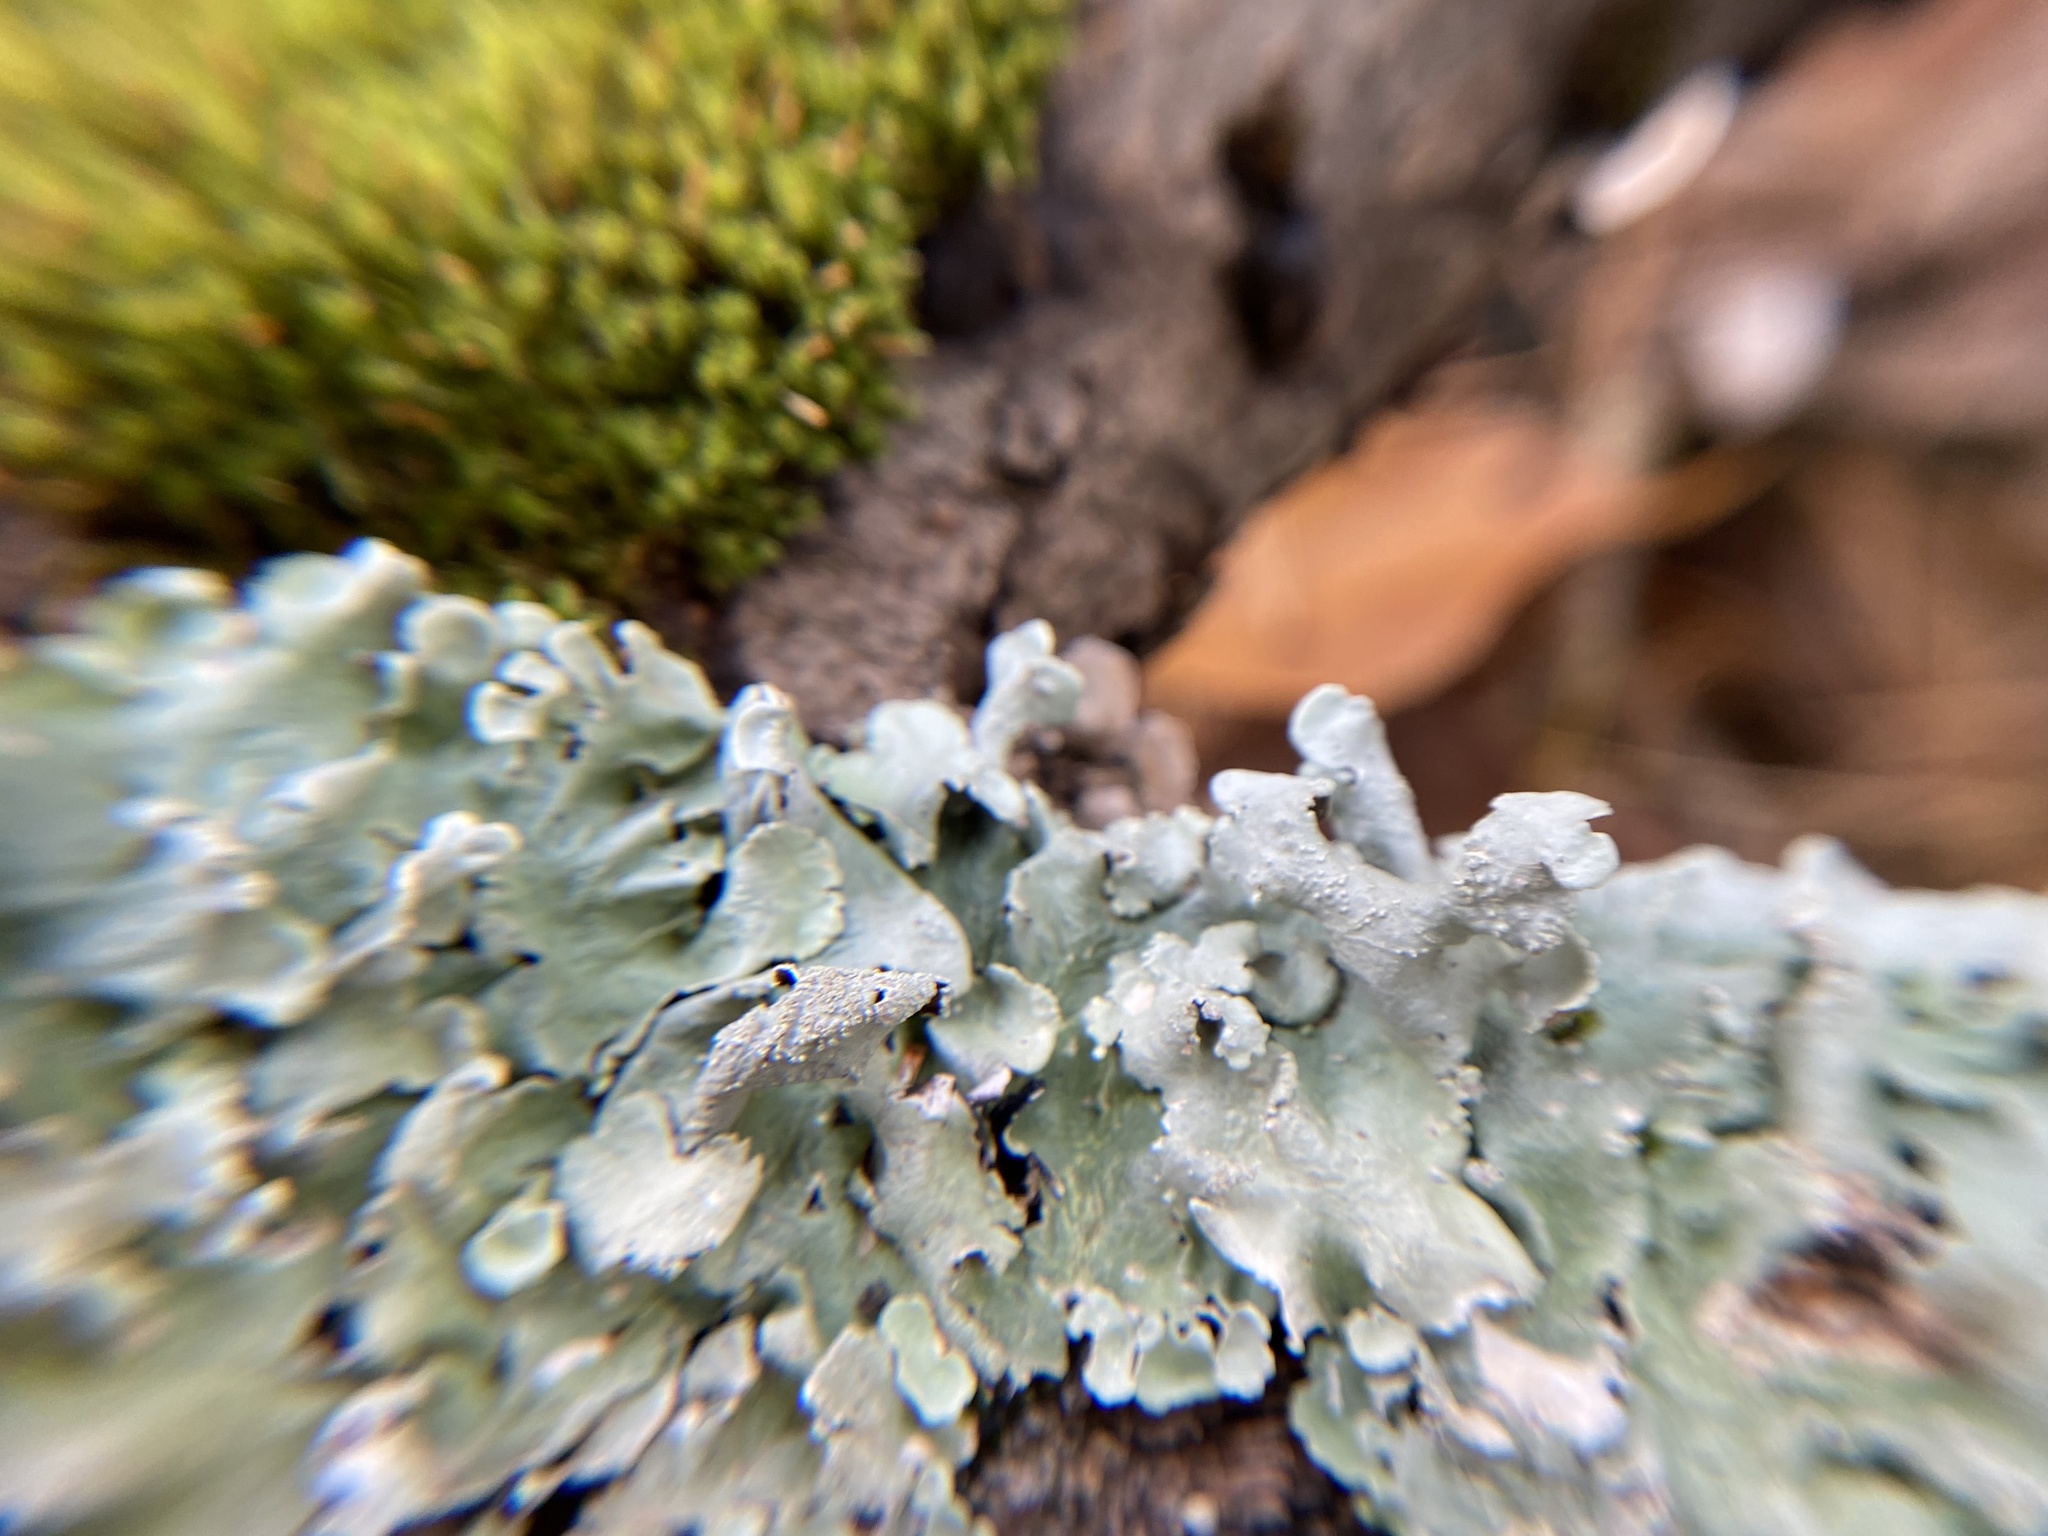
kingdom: Fungi
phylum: Ascomycota
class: Lecanoromycetes
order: Lecanorales
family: Parmeliaceae
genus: Flavoparmelia
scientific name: Flavoparmelia caperata
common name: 40-mile per hour lichen
